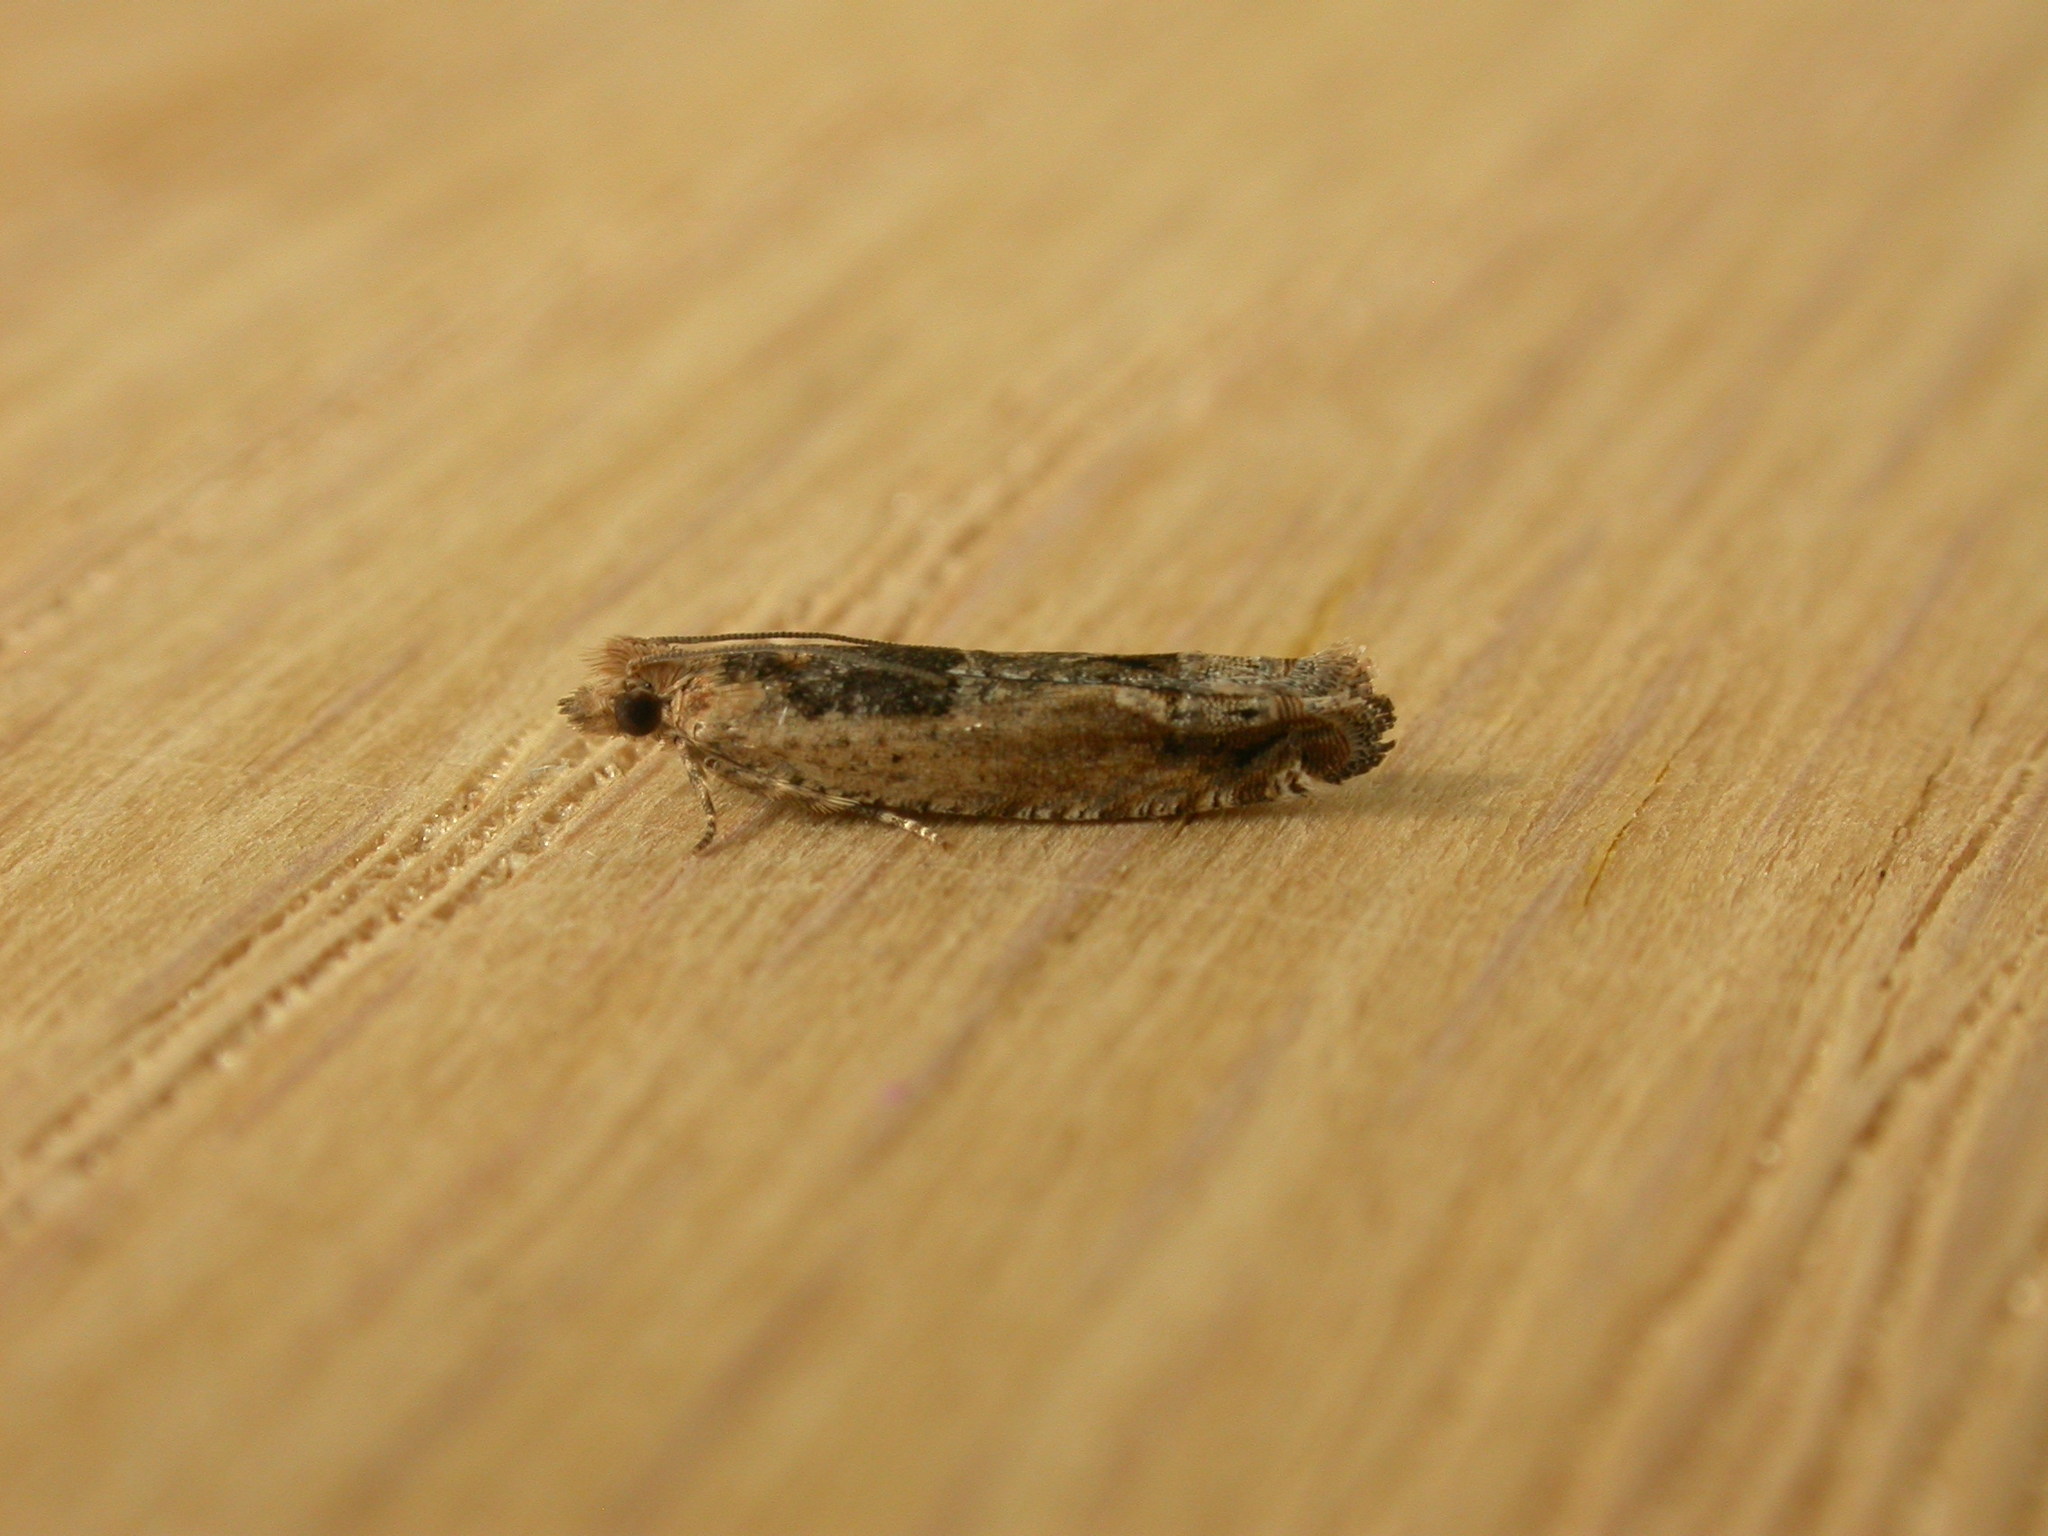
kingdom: Animalia
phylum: Arthropoda
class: Insecta
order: Lepidoptera
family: Tortricidae
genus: Crocidosema
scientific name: Crocidosema plebejana
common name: Southern bell
